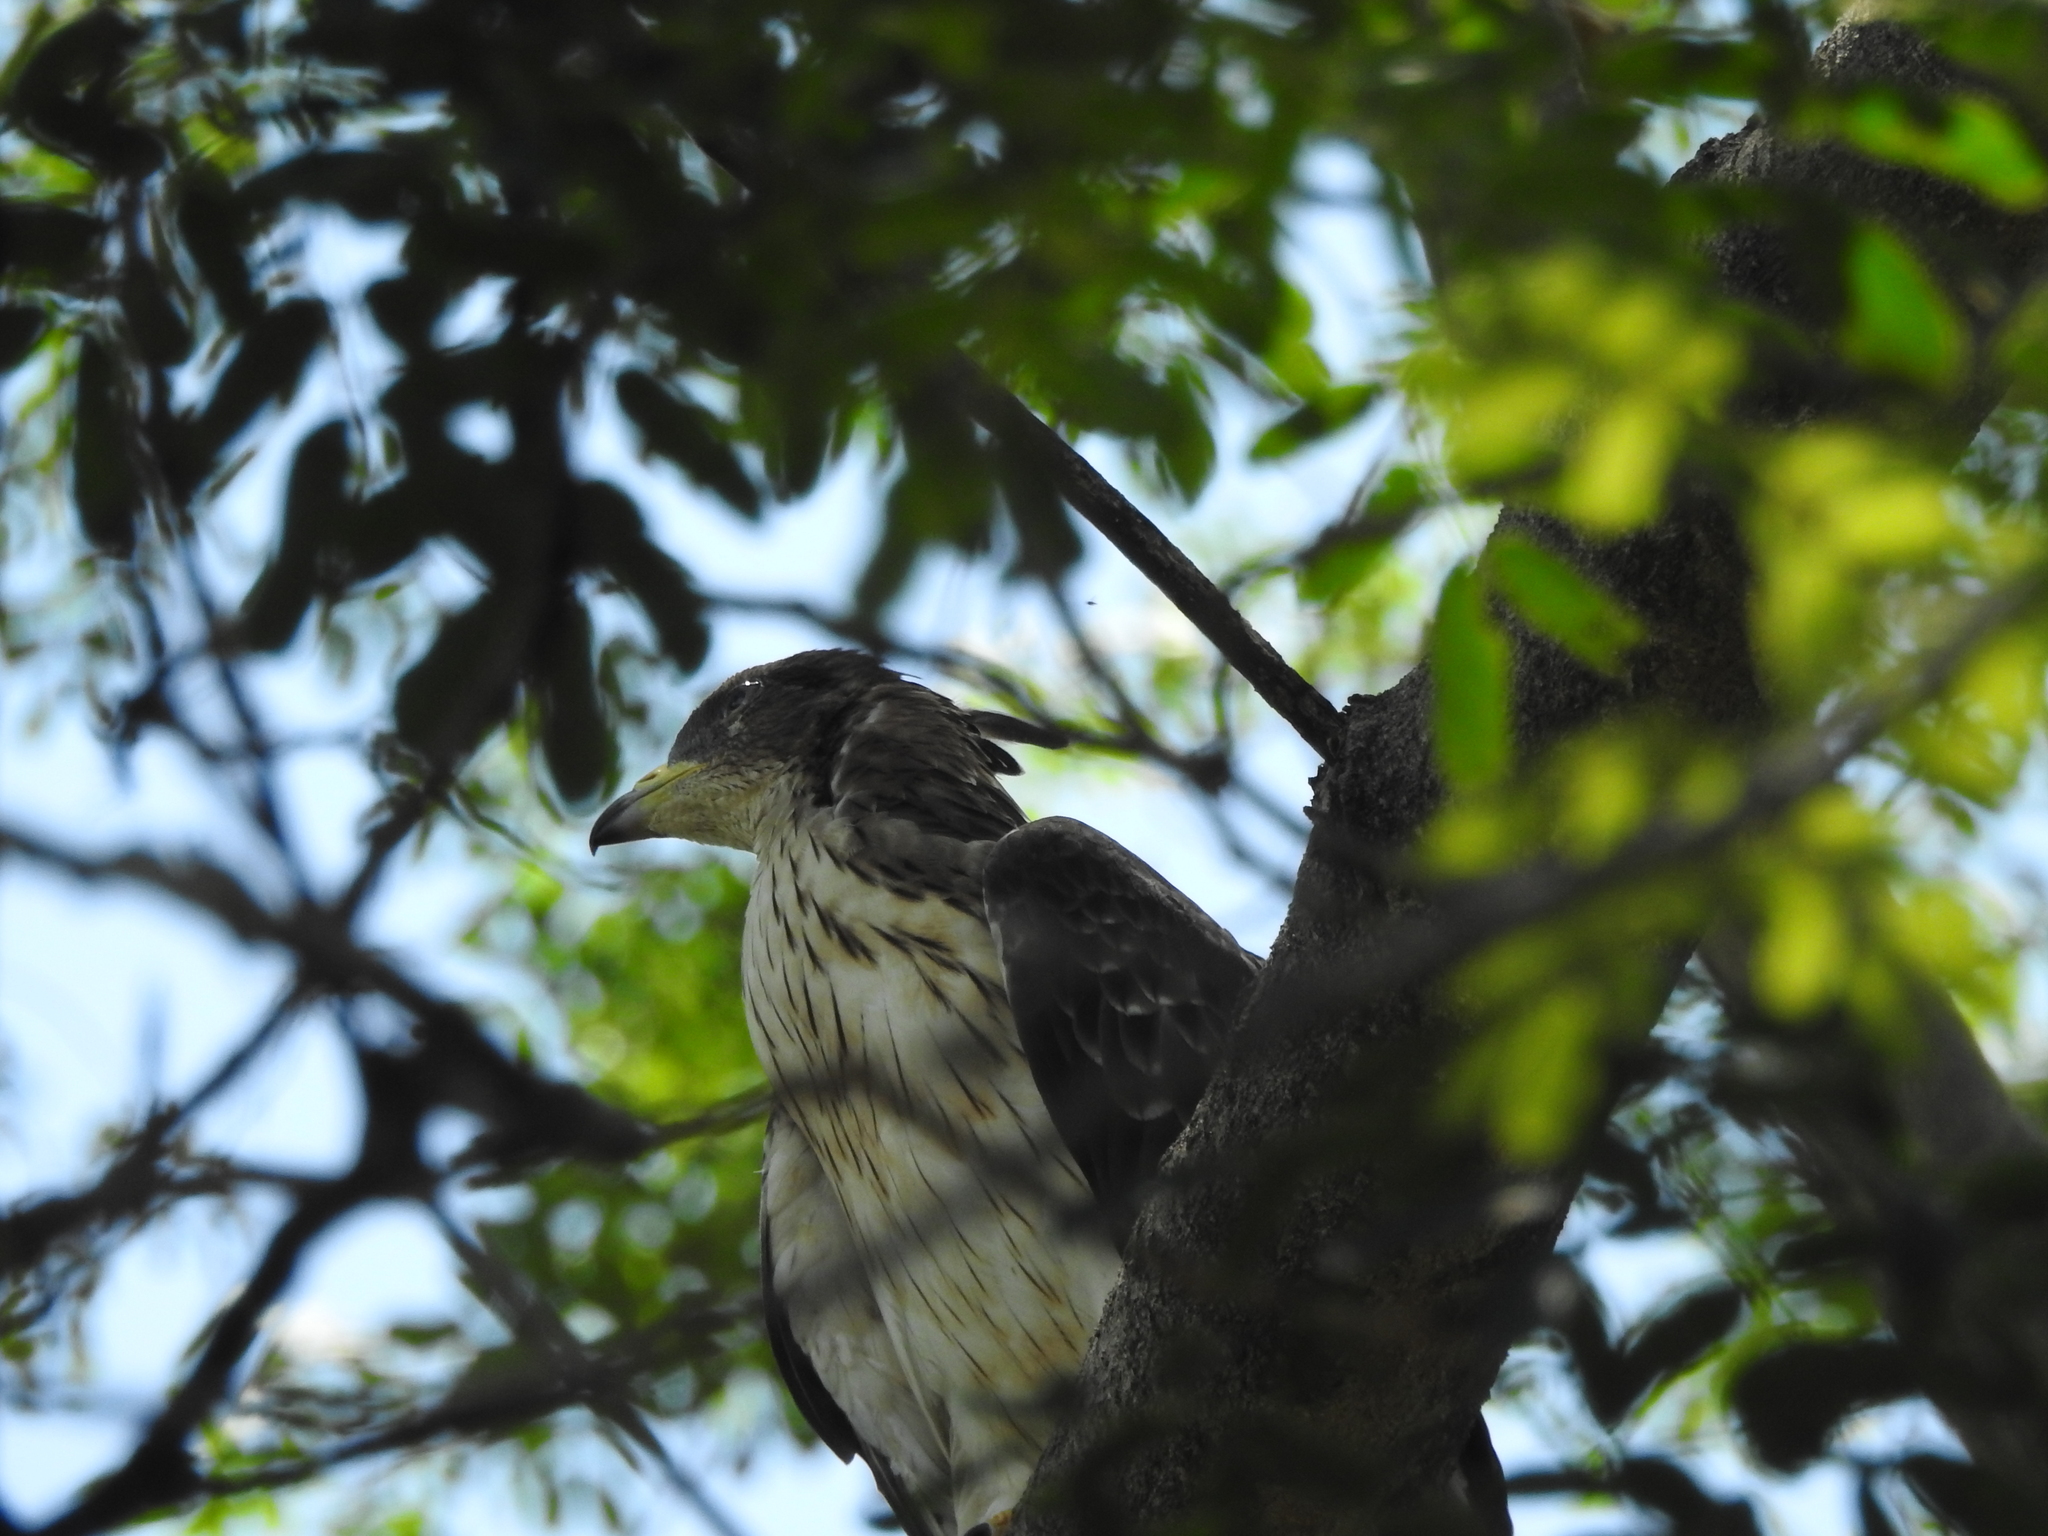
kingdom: Animalia
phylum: Chordata
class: Aves
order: Accipitriformes
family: Accipitridae
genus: Pernis
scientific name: Pernis ptilorhynchus
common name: Crested honey buzzard
